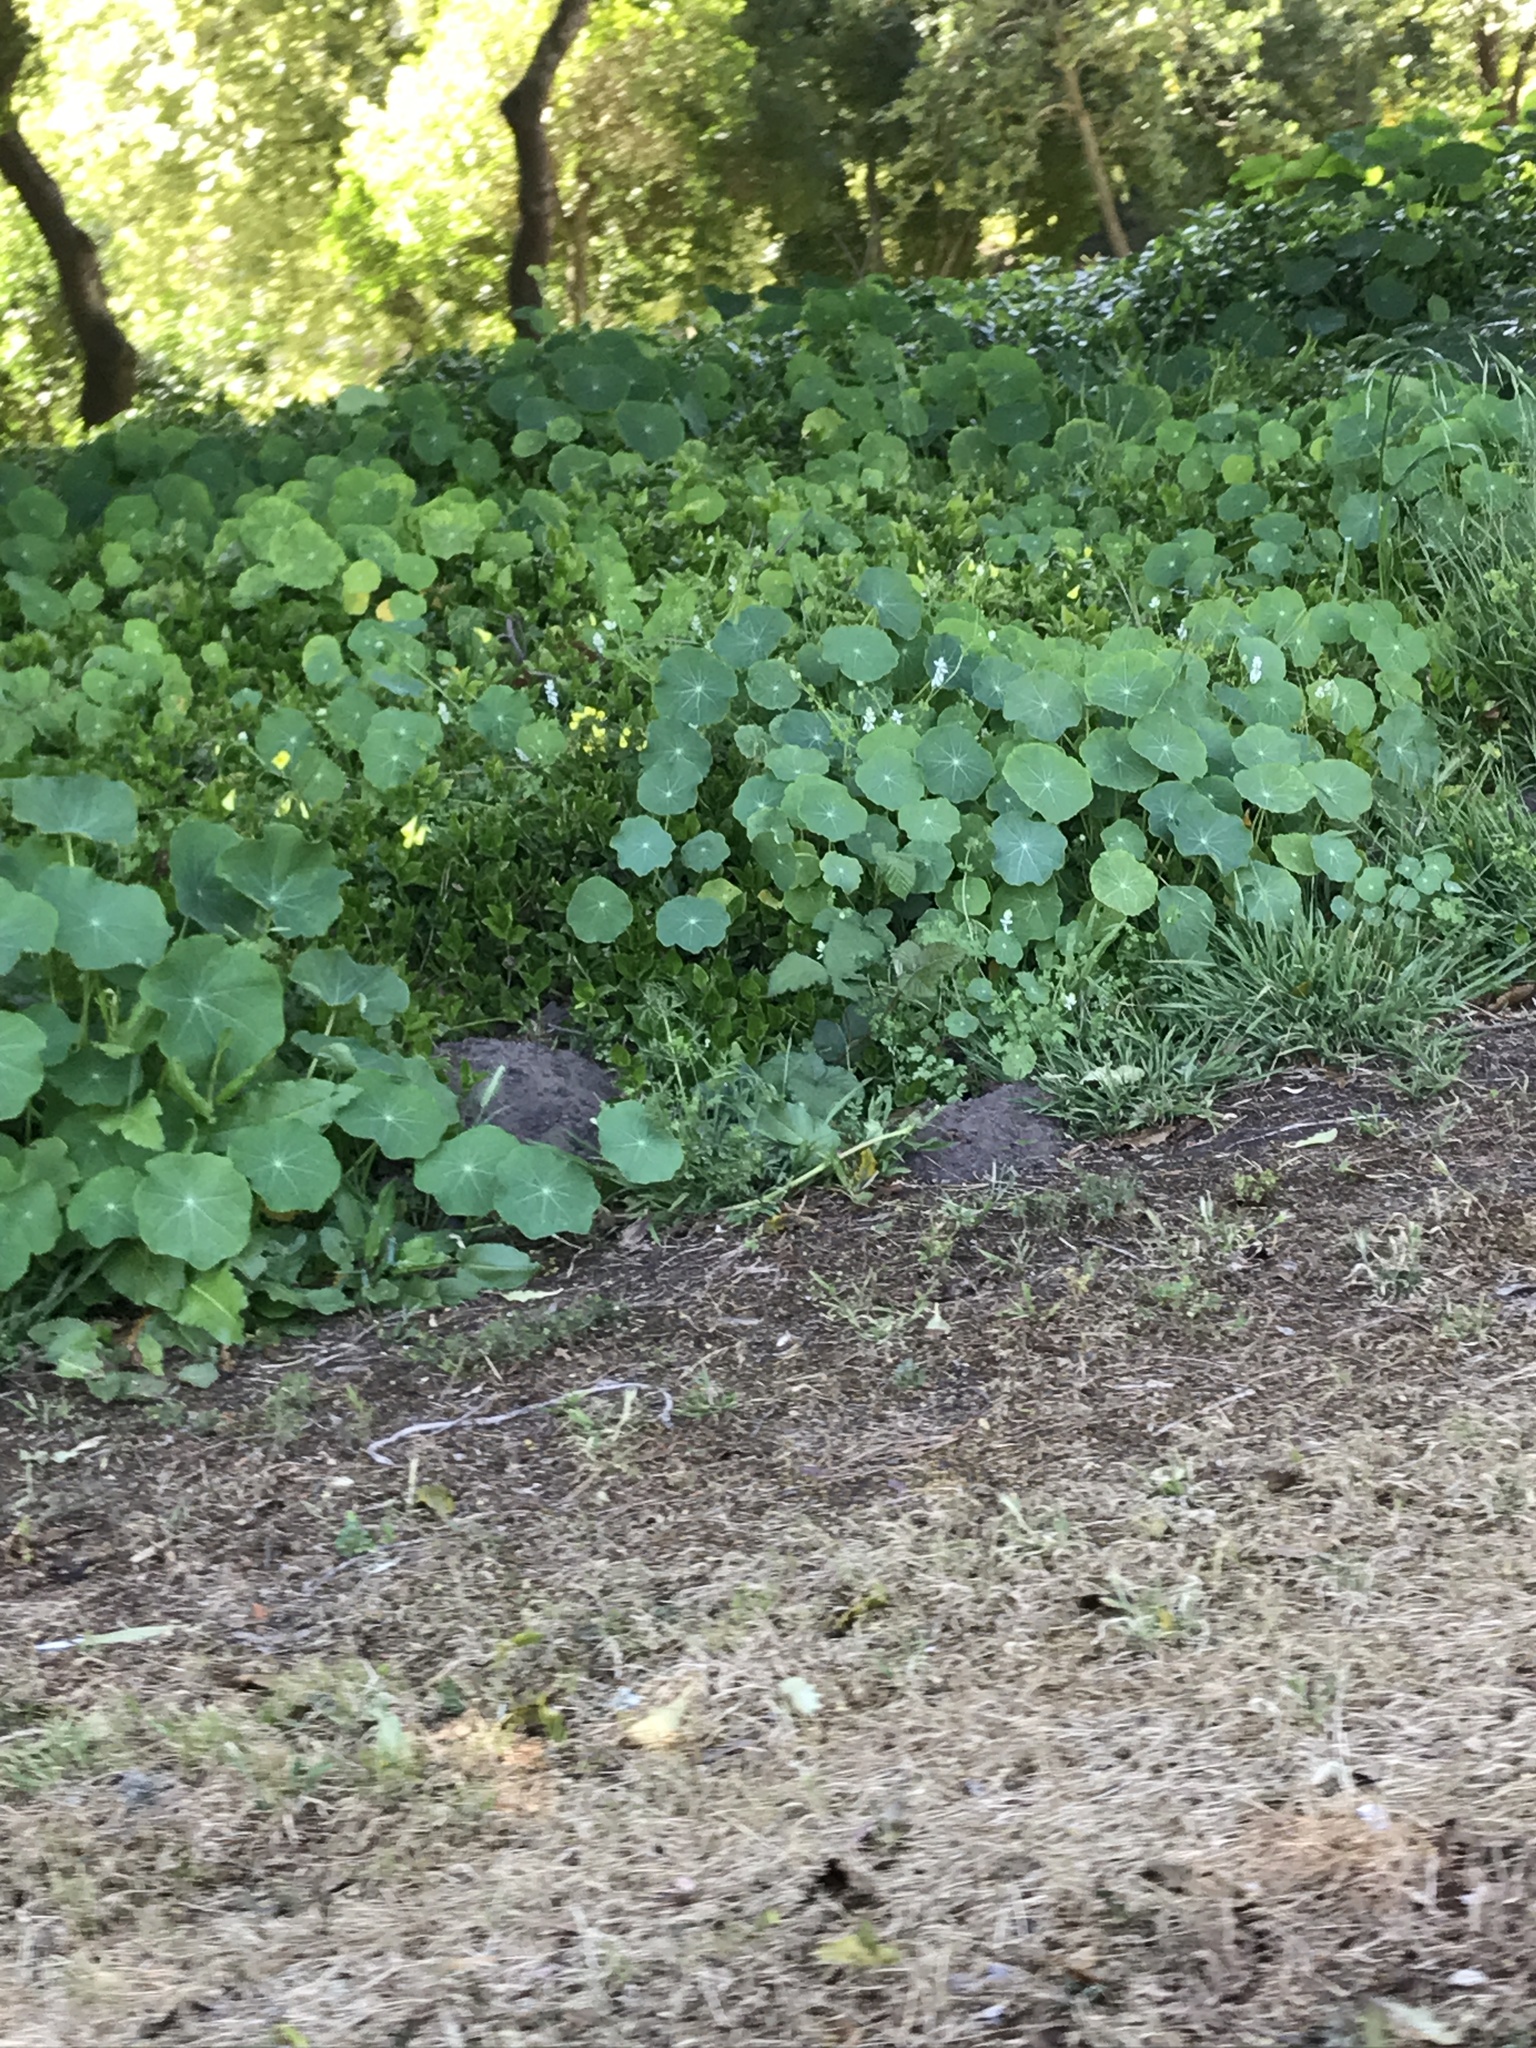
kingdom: Plantae
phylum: Tracheophyta
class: Magnoliopsida
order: Brassicales
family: Tropaeolaceae
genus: Tropaeolum
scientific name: Tropaeolum majus
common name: Nasturtium
